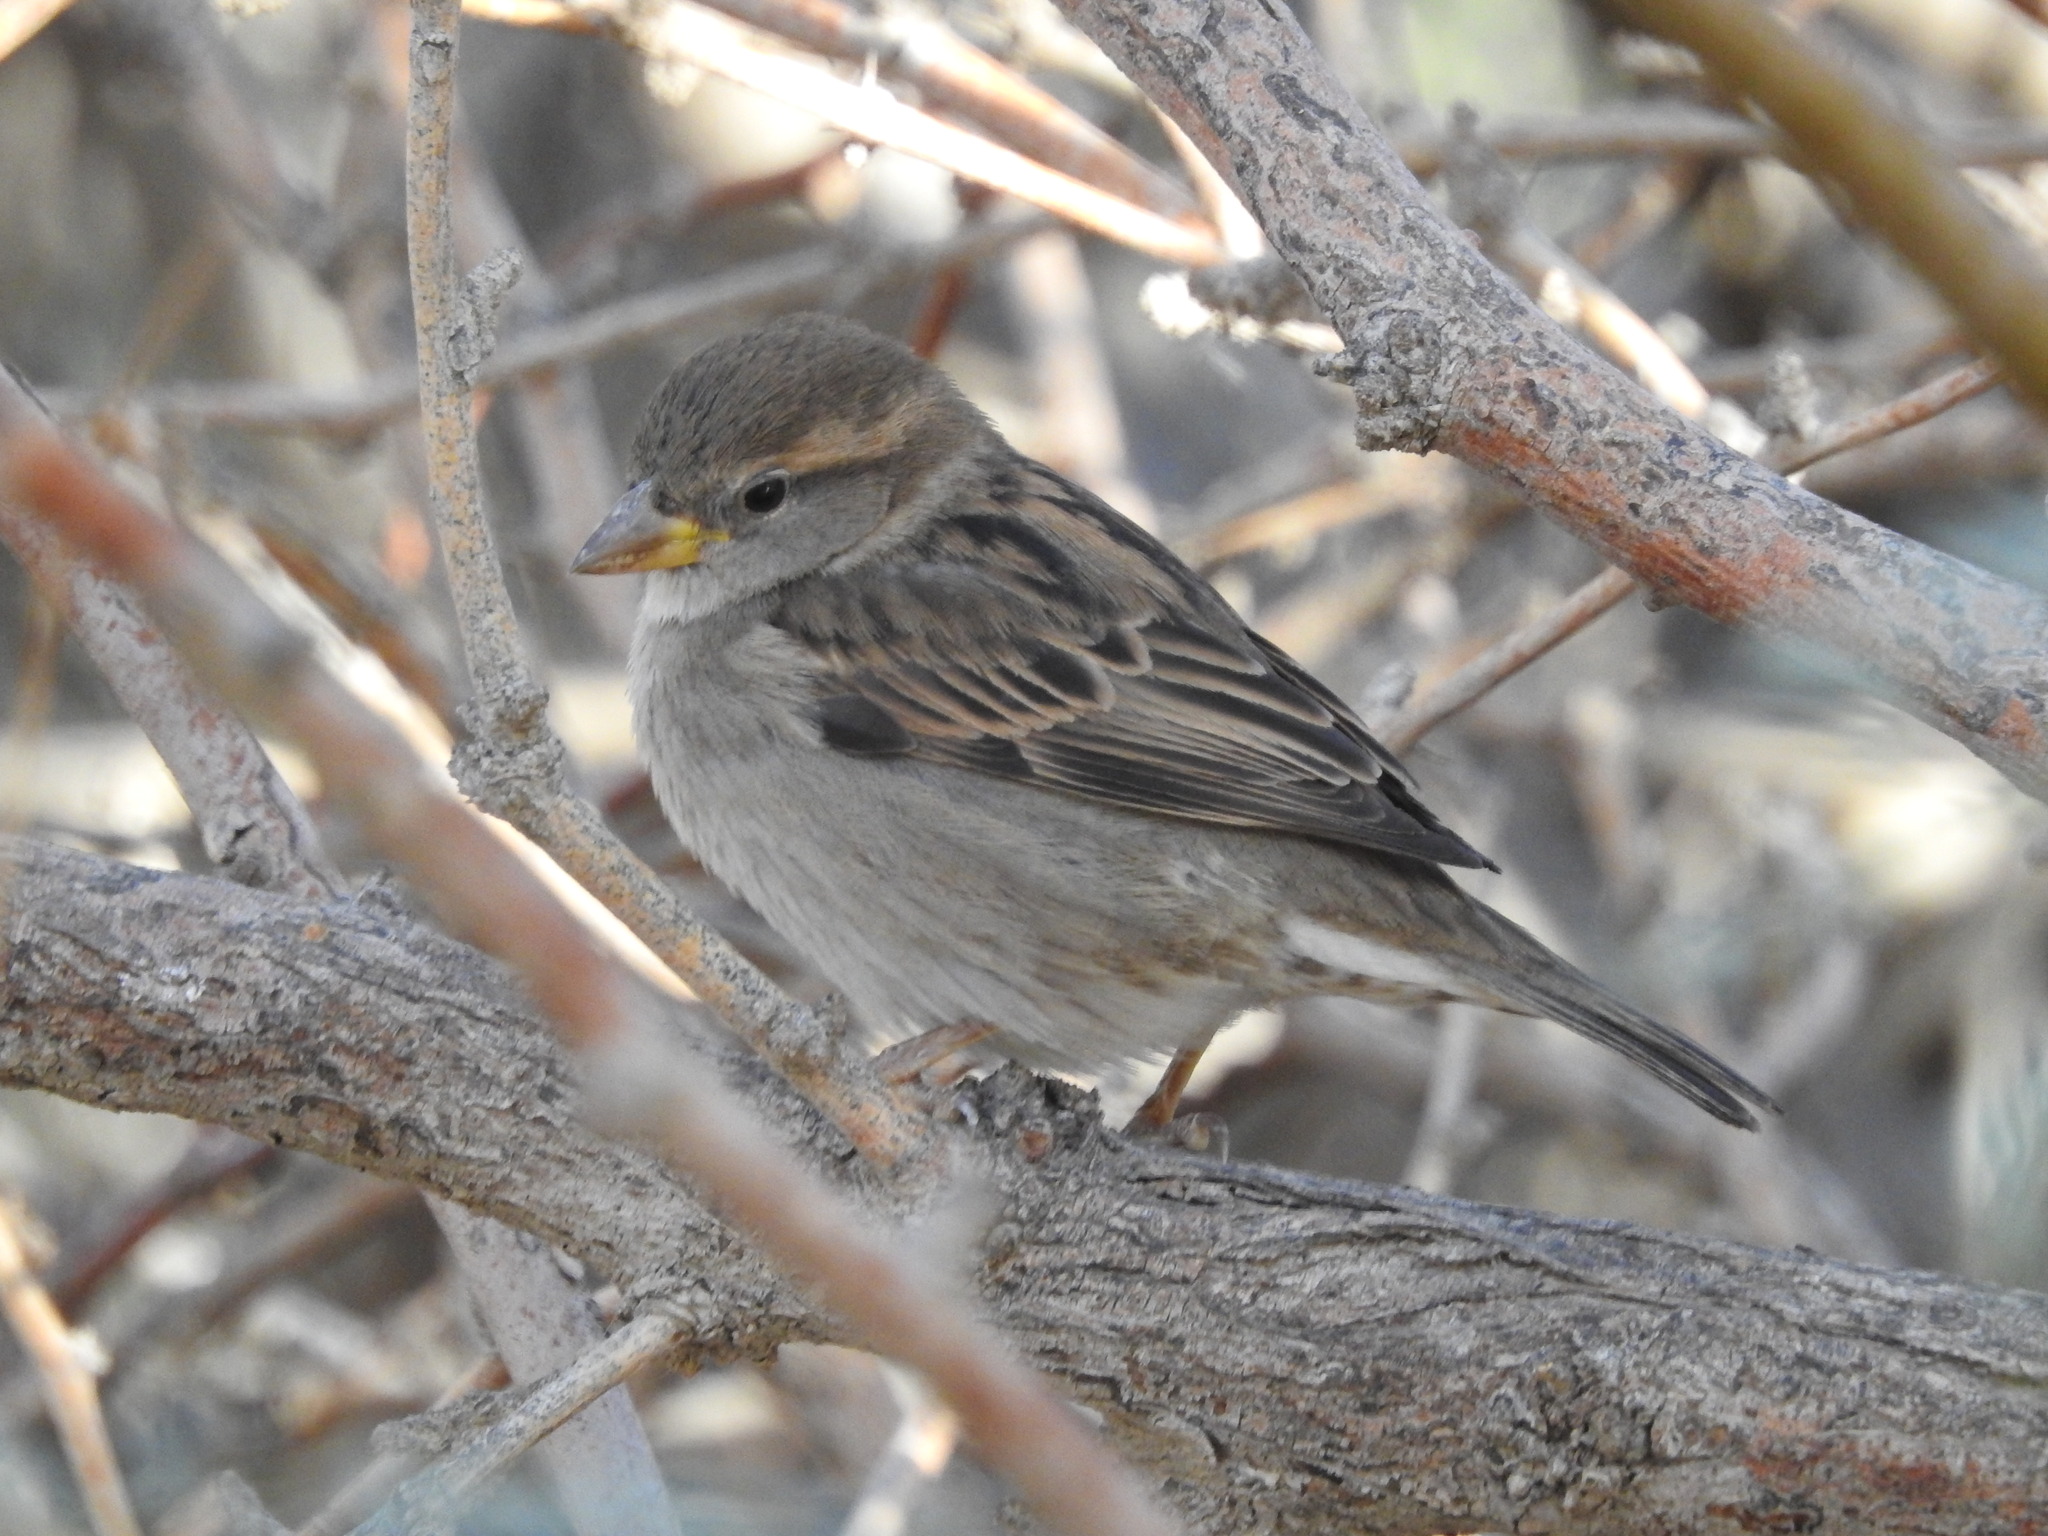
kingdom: Animalia
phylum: Chordata
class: Aves
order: Passeriformes
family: Passeridae
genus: Passer
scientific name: Passer domesticus
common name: House sparrow
